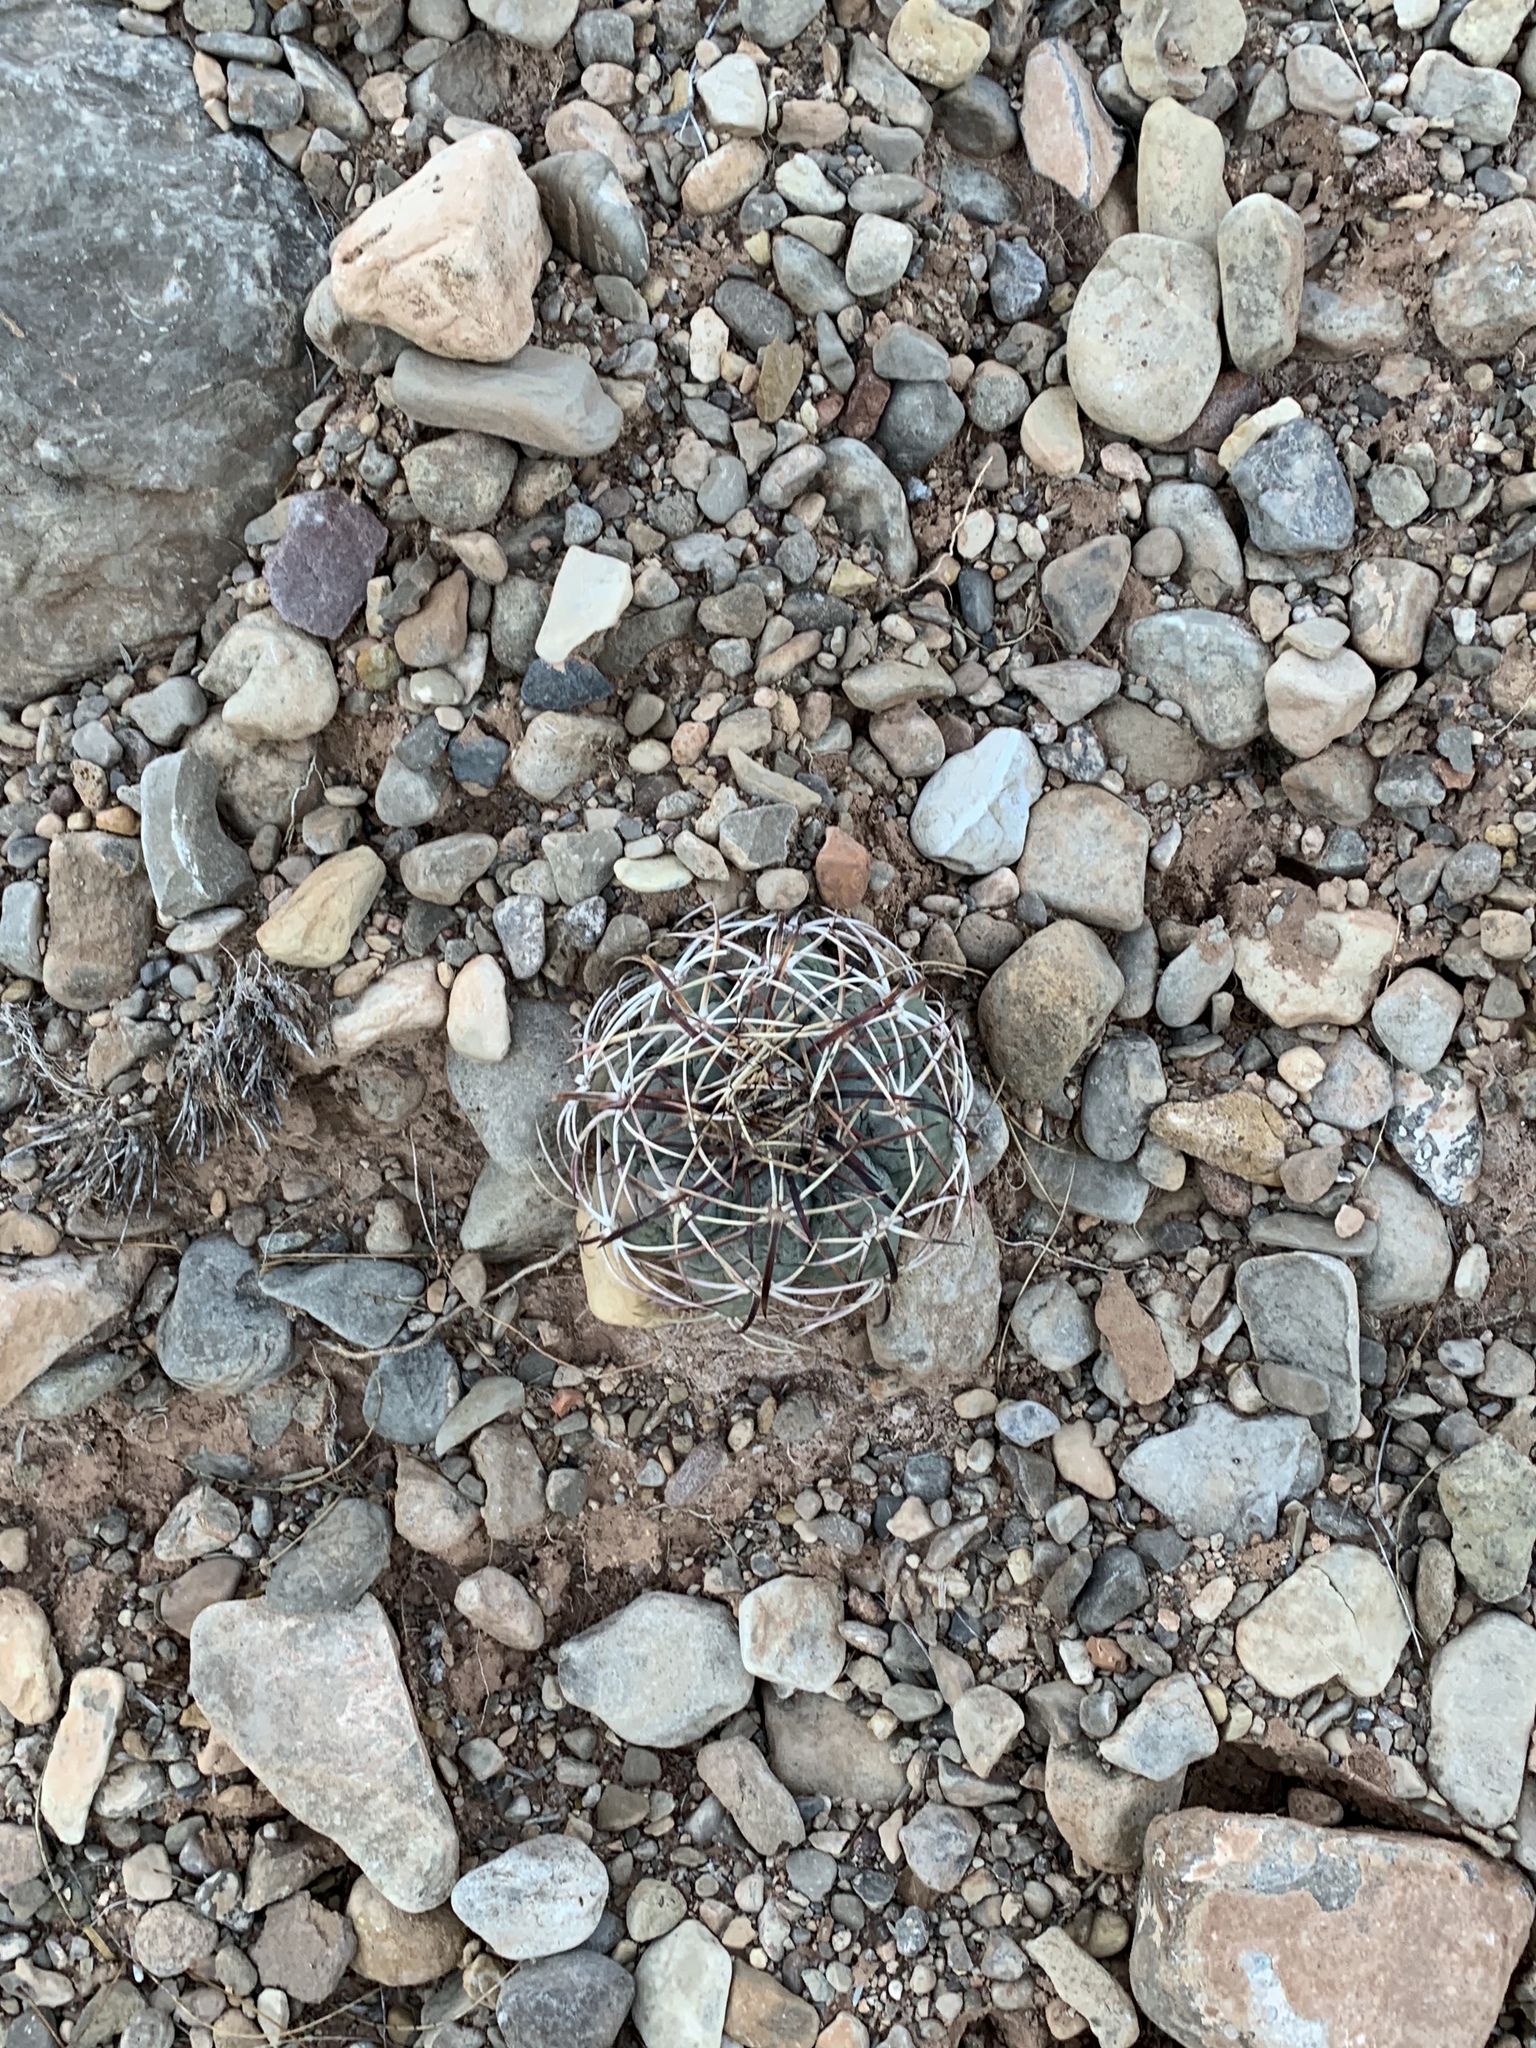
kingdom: Plantae
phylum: Tracheophyta
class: Magnoliopsida
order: Caryophyllales
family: Cactaceae
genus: Echinocactus
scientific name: Echinocactus horizonthalonius
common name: Devilshead
